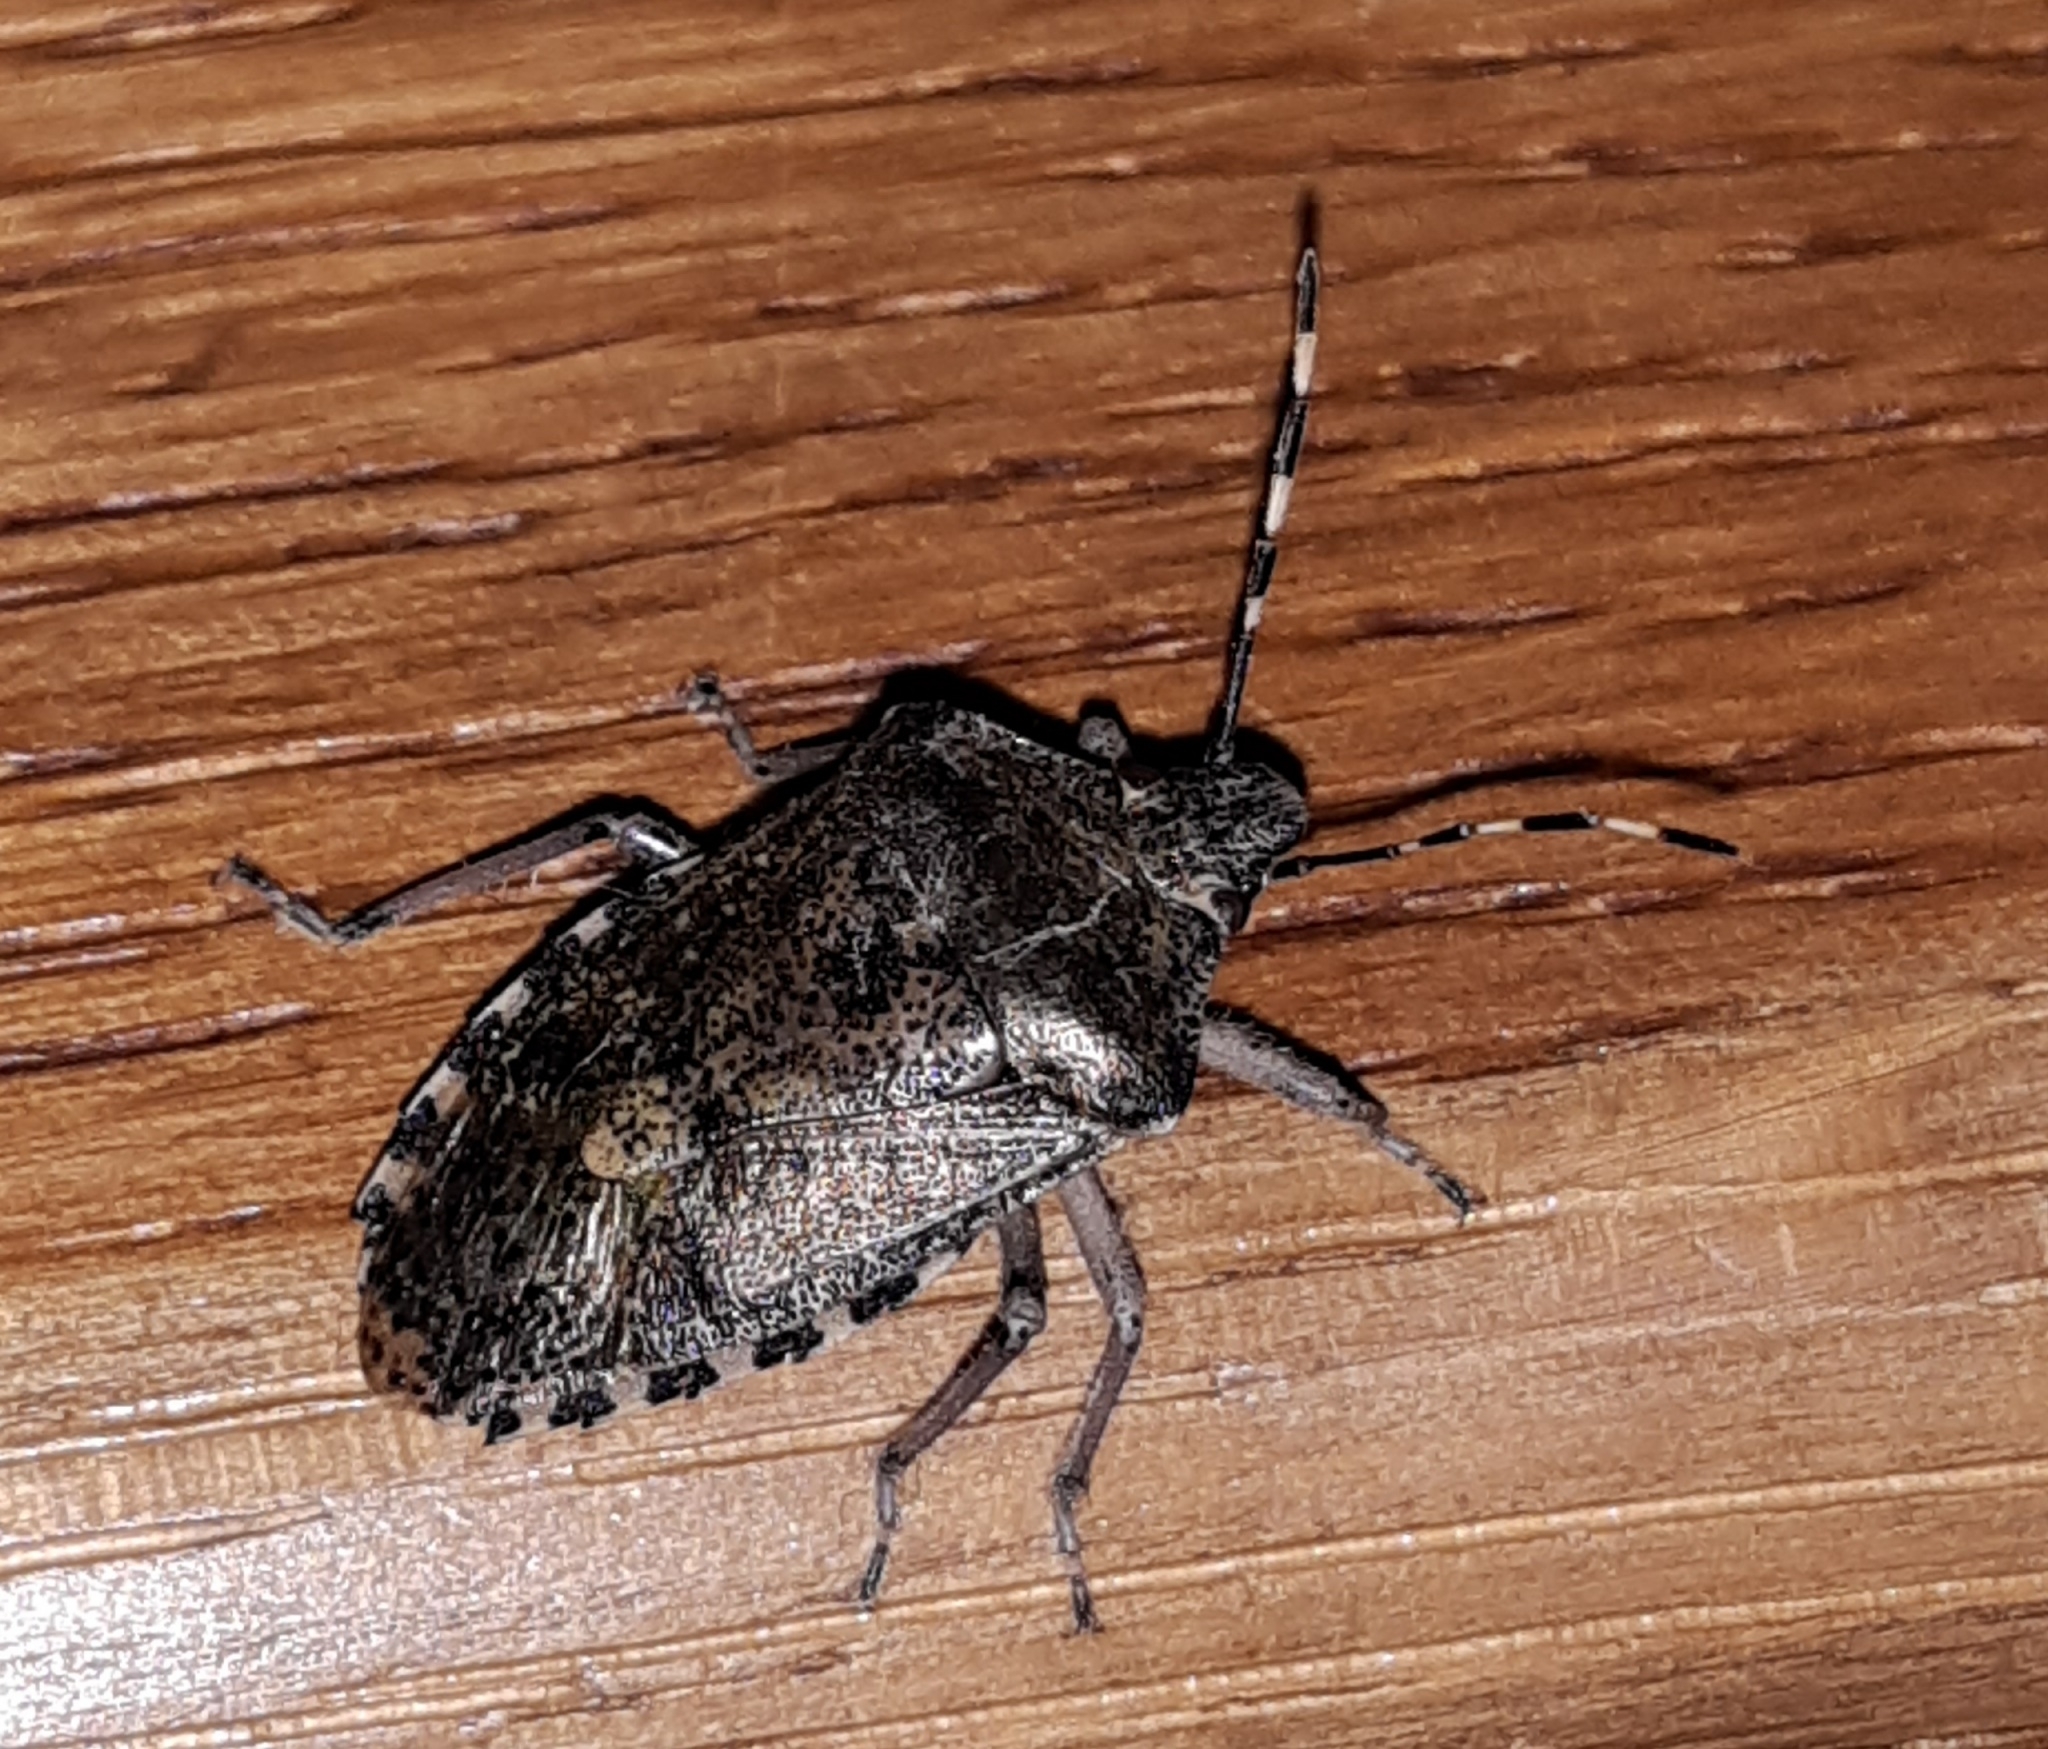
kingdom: Animalia
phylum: Arthropoda
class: Insecta
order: Hemiptera
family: Pentatomidae
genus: Rhaphigaster
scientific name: Rhaphigaster nebulosa
